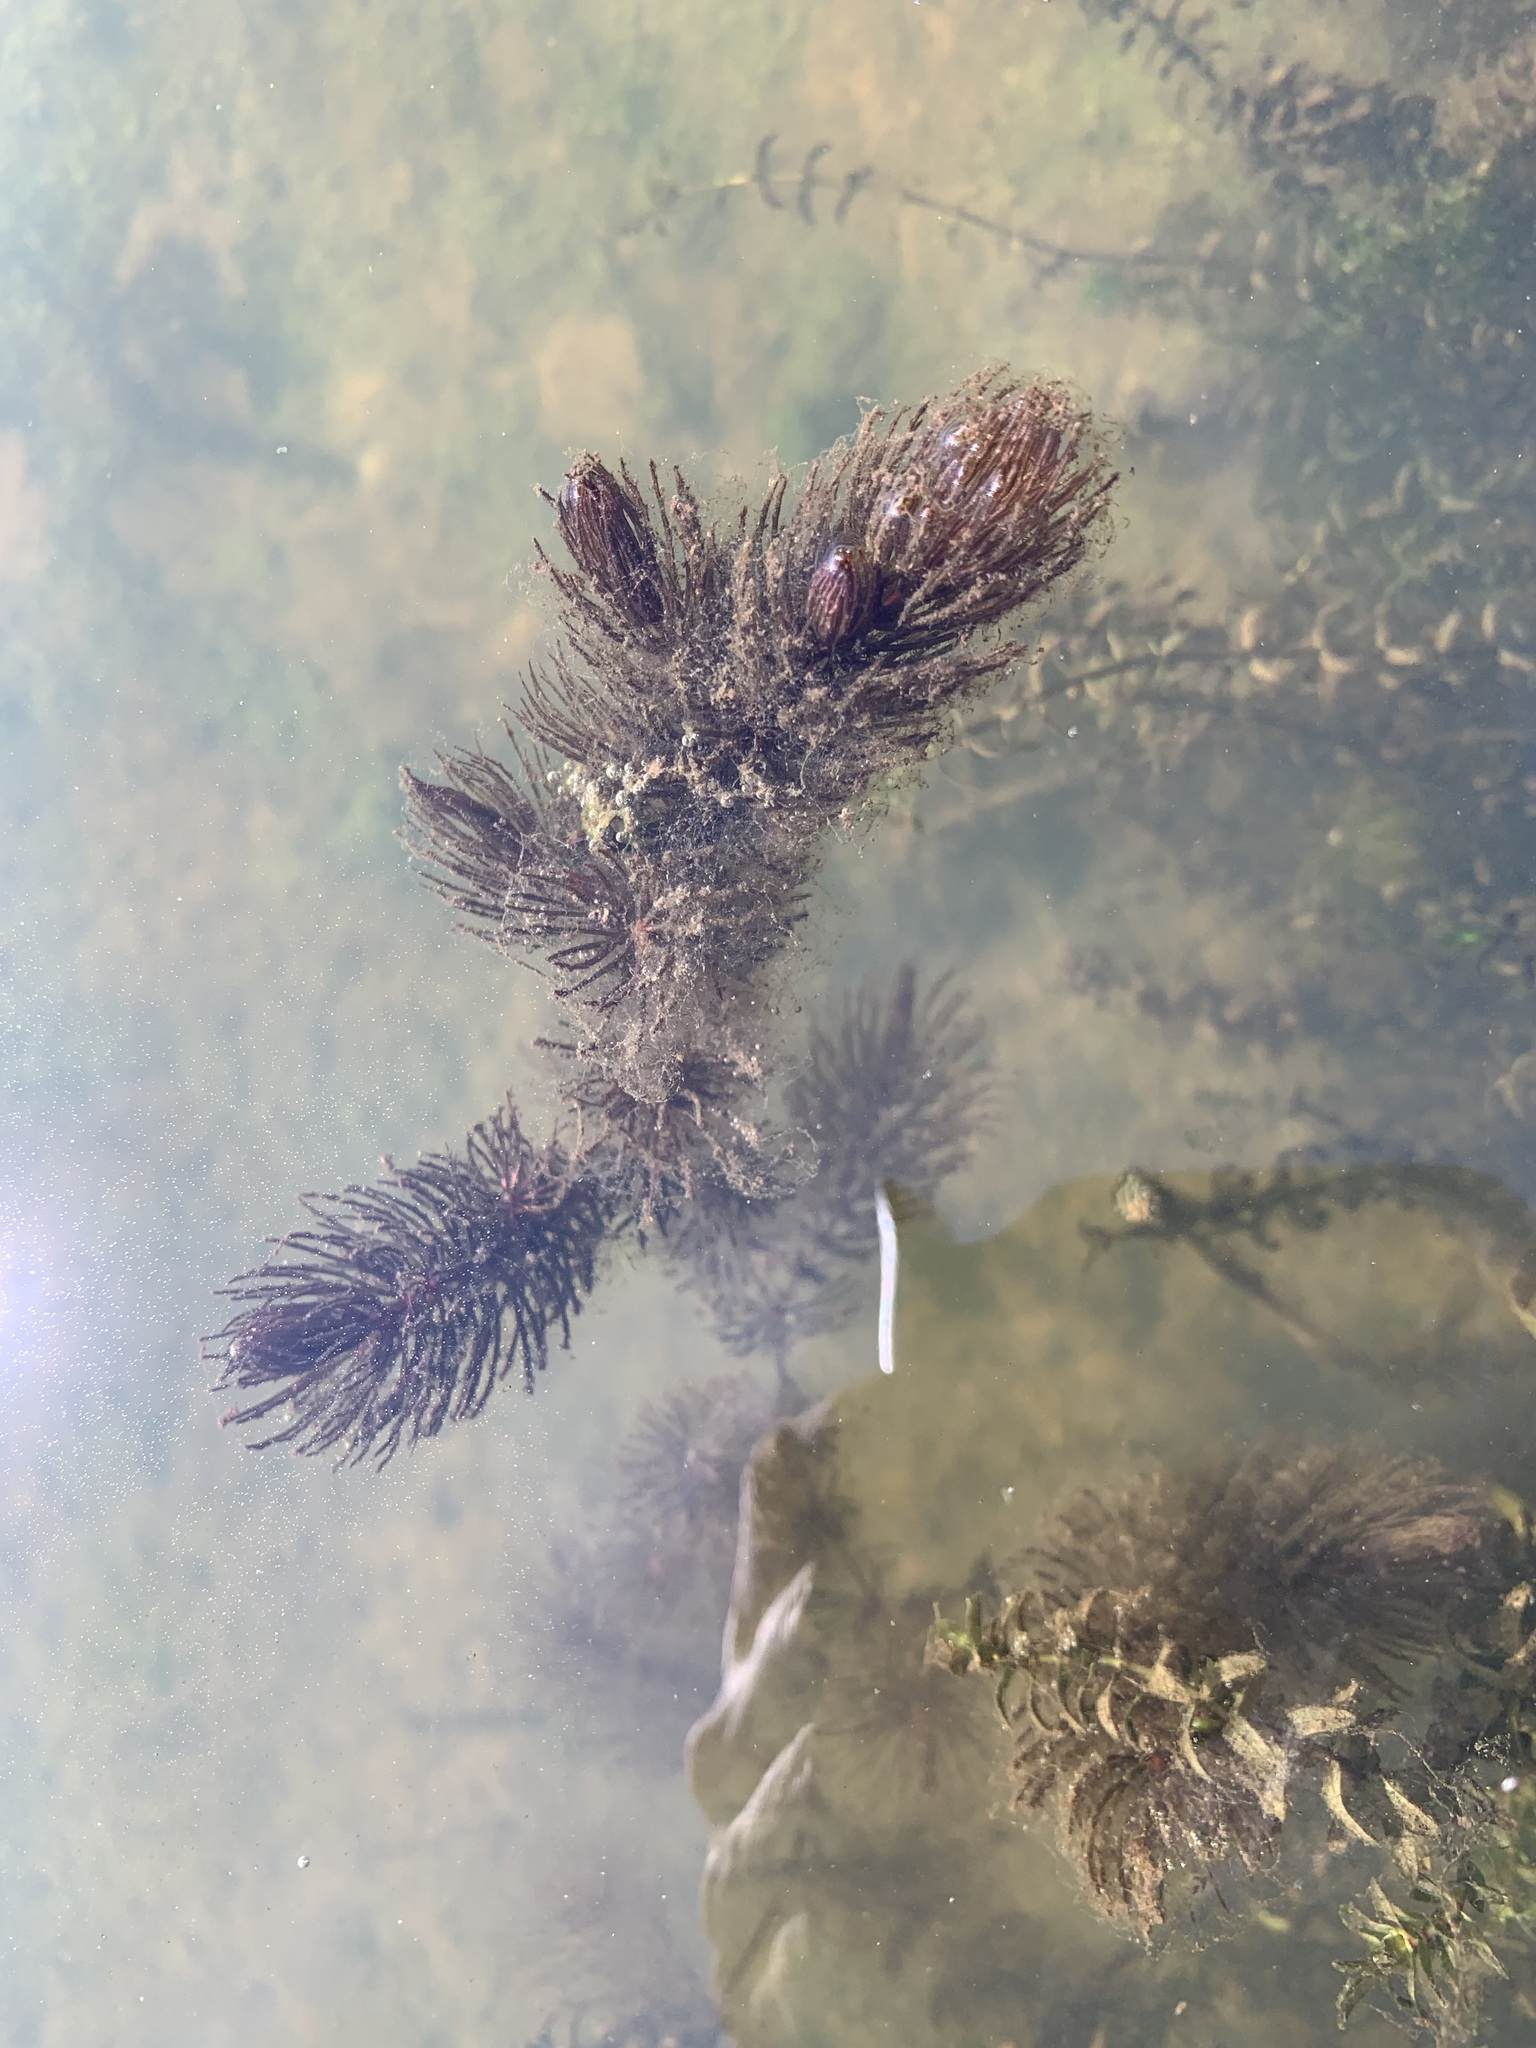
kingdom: Plantae
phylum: Tracheophyta
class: Magnoliopsida
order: Ceratophyllales
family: Ceratophyllaceae
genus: Ceratophyllum
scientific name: Ceratophyllum demersum
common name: Rigid hornwort
